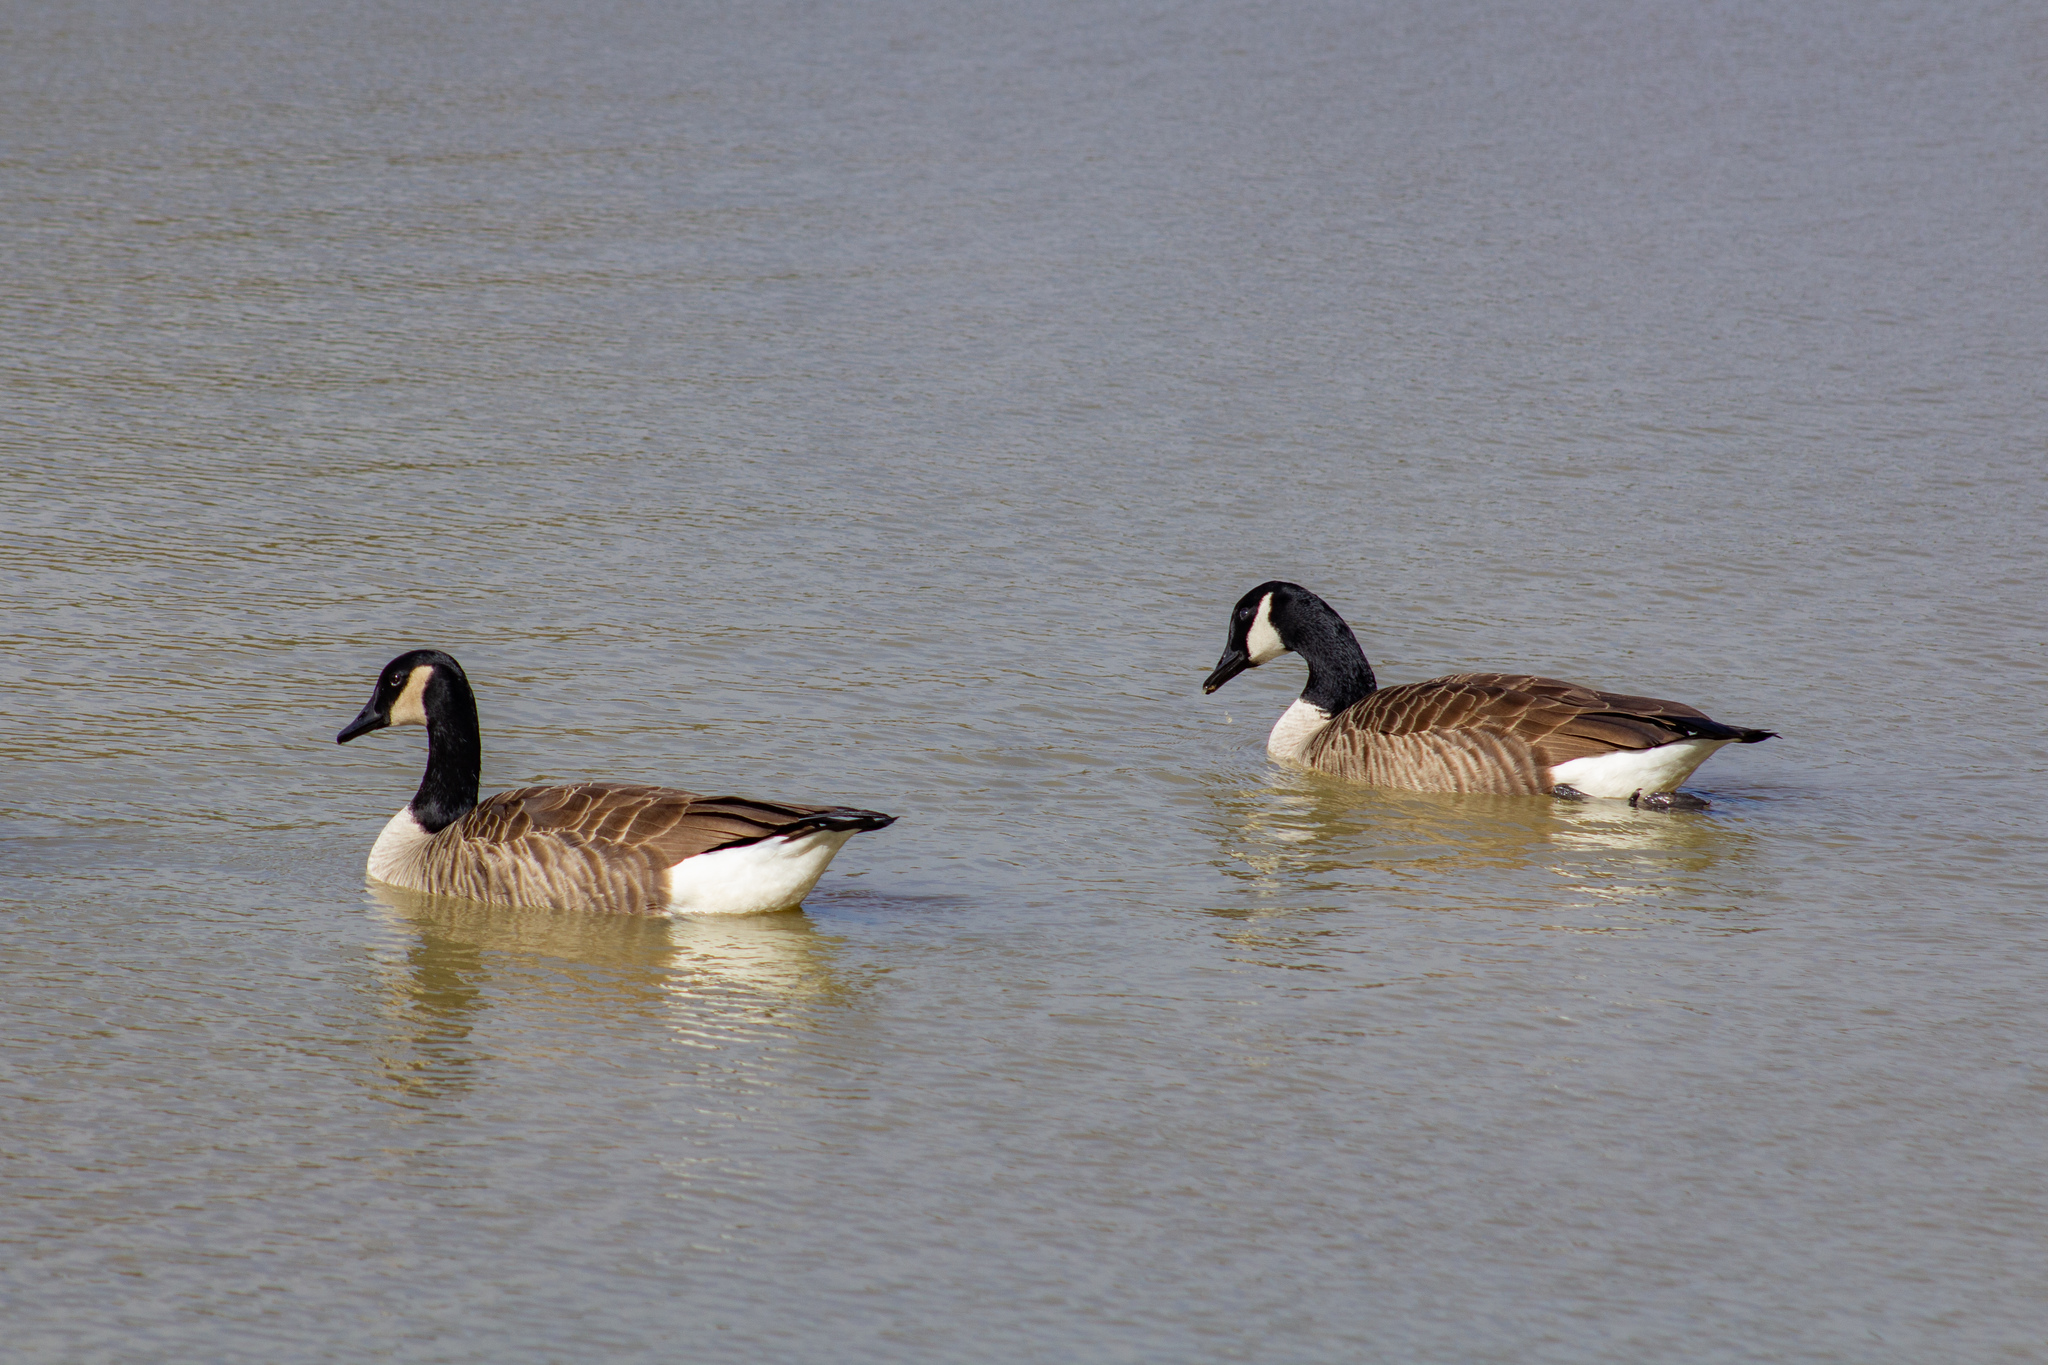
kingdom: Animalia
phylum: Chordata
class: Aves
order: Anseriformes
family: Anatidae
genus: Branta
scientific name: Branta canadensis
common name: Canada goose
